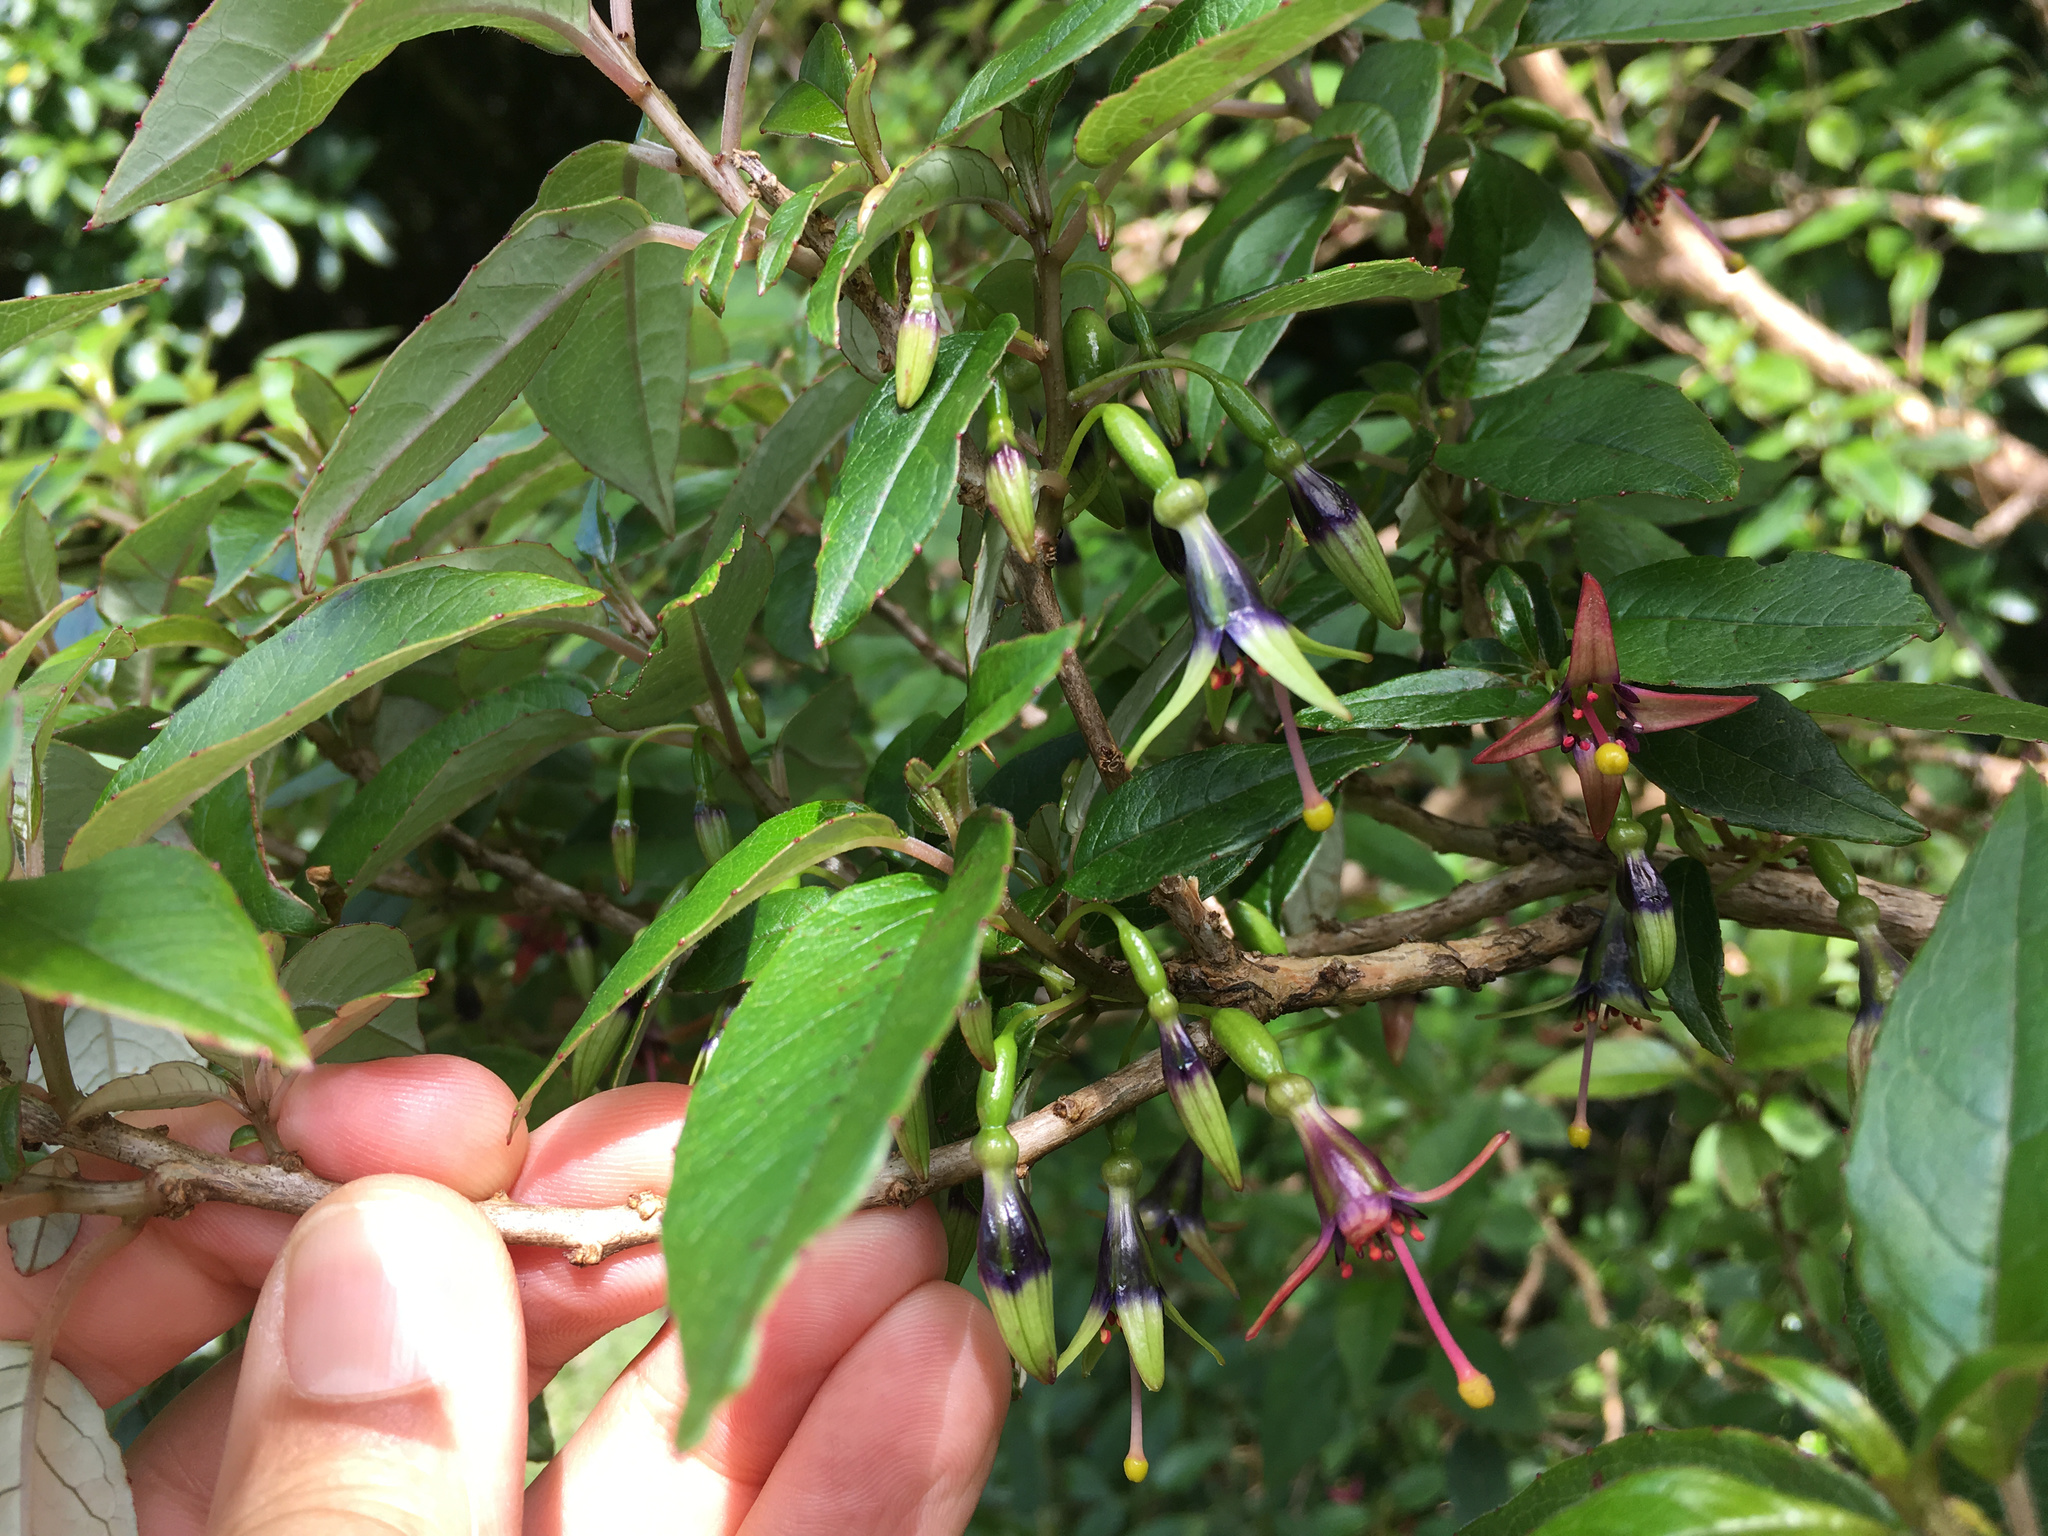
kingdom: Plantae
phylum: Tracheophyta
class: Magnoliopsida
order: Myrtales
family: Onagraceae
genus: Fuchsia
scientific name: Fuchsia excorticata
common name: Tree fuchsia
